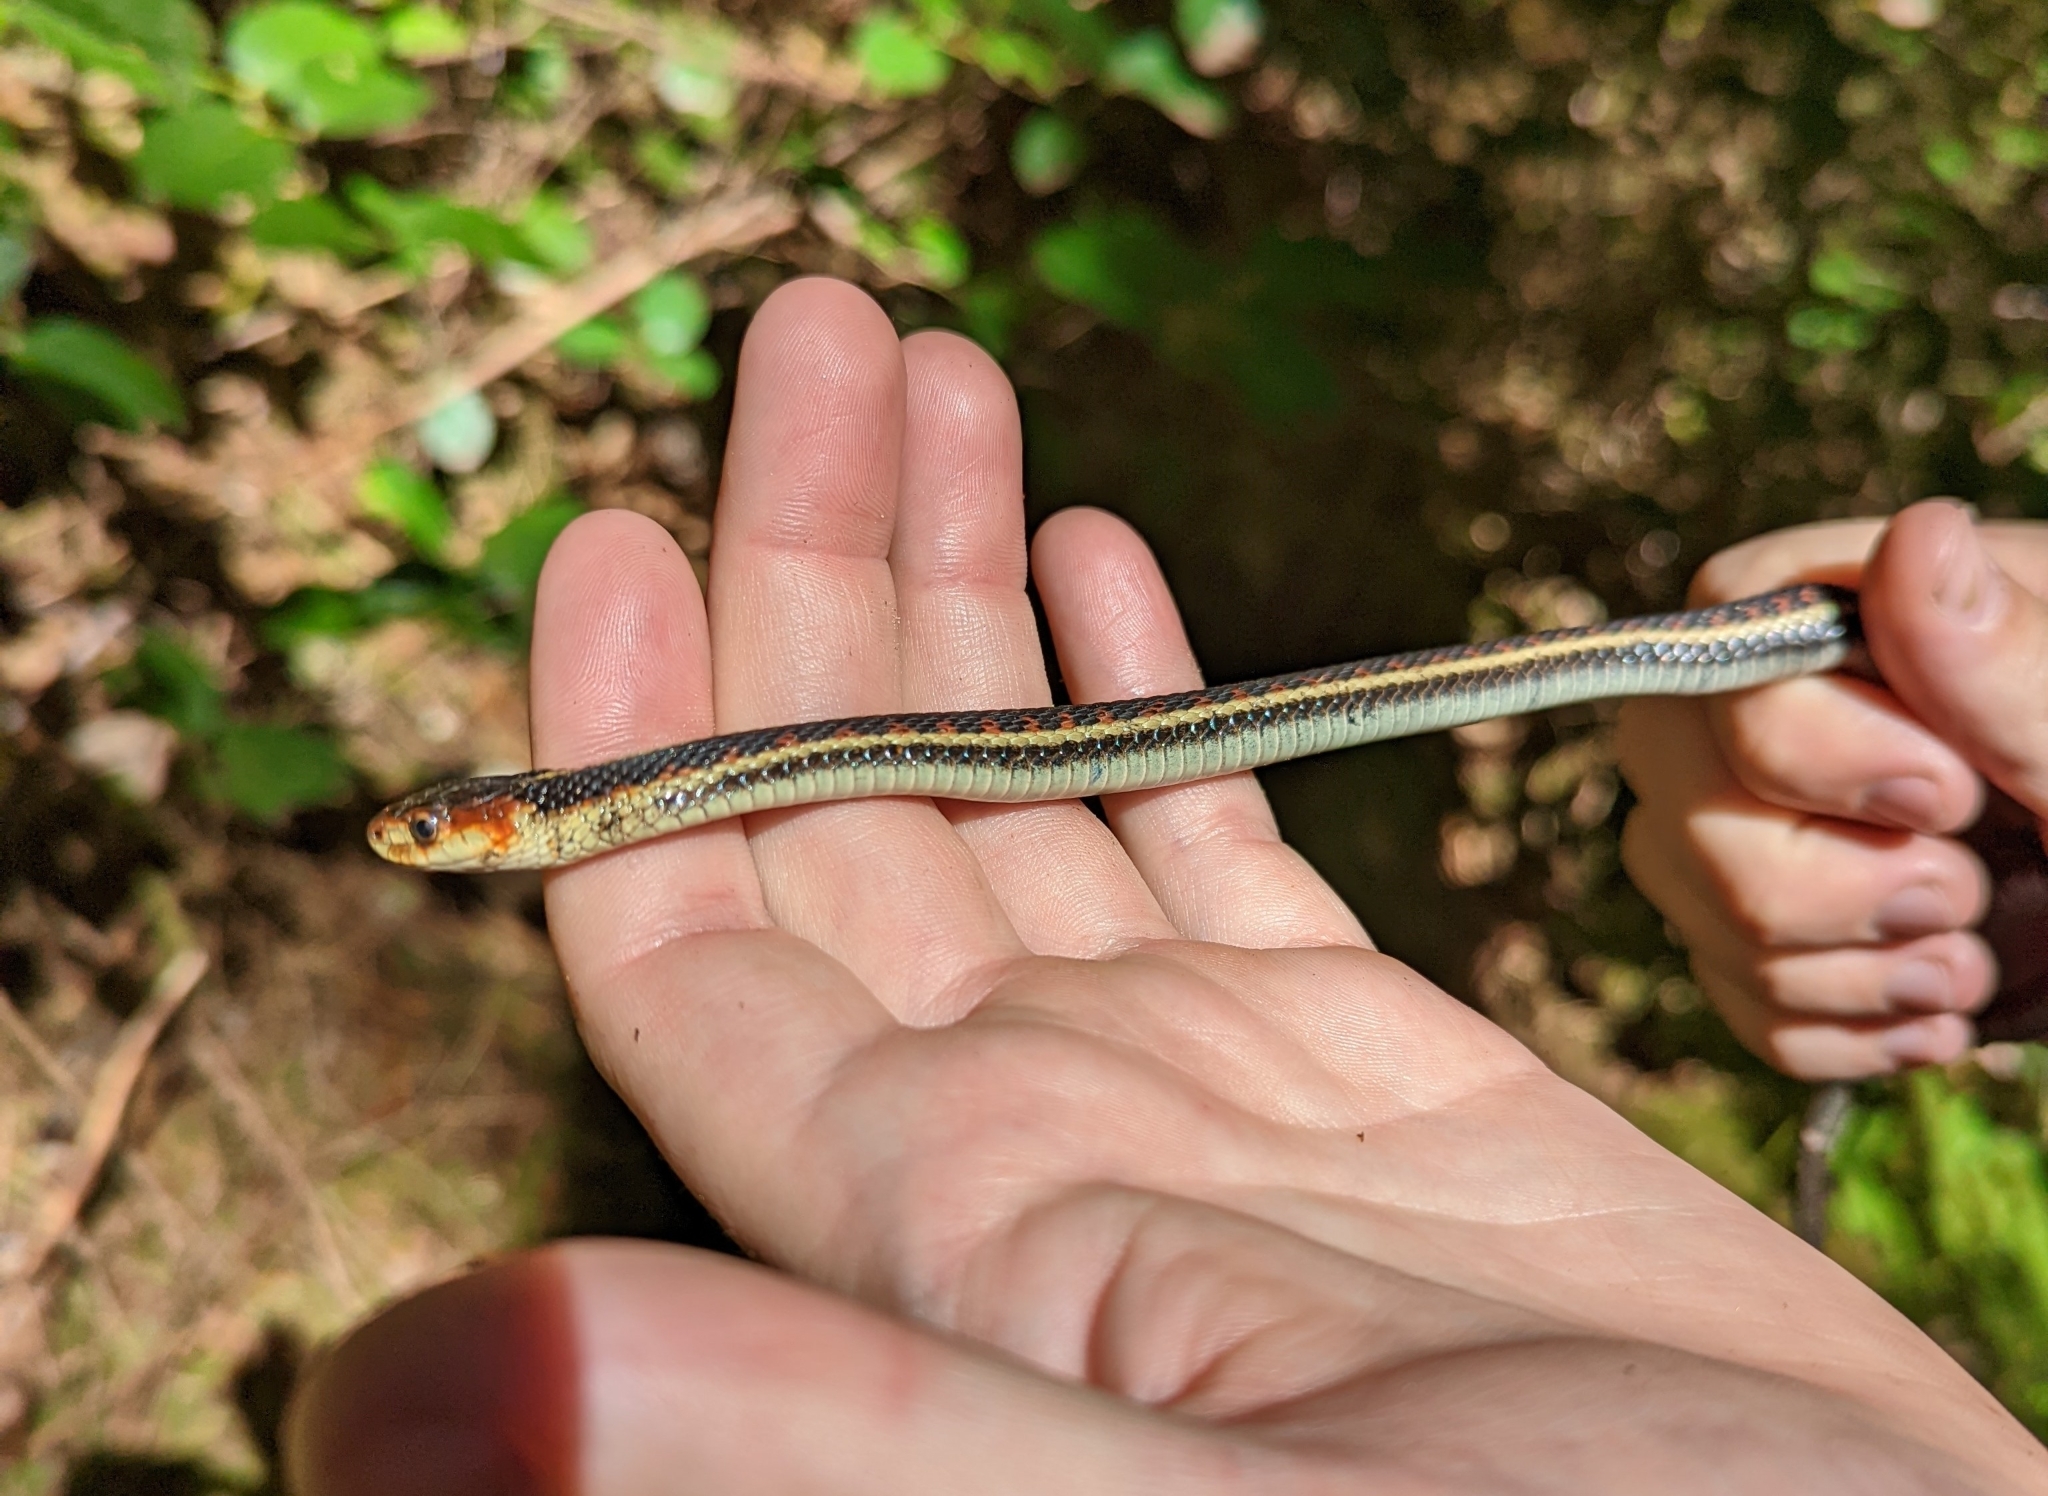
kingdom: Animalia
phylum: Chordata
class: Squamata
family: Colubridae
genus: Thamnophis
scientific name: Thamnophis sirtalis
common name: Common garter snake
